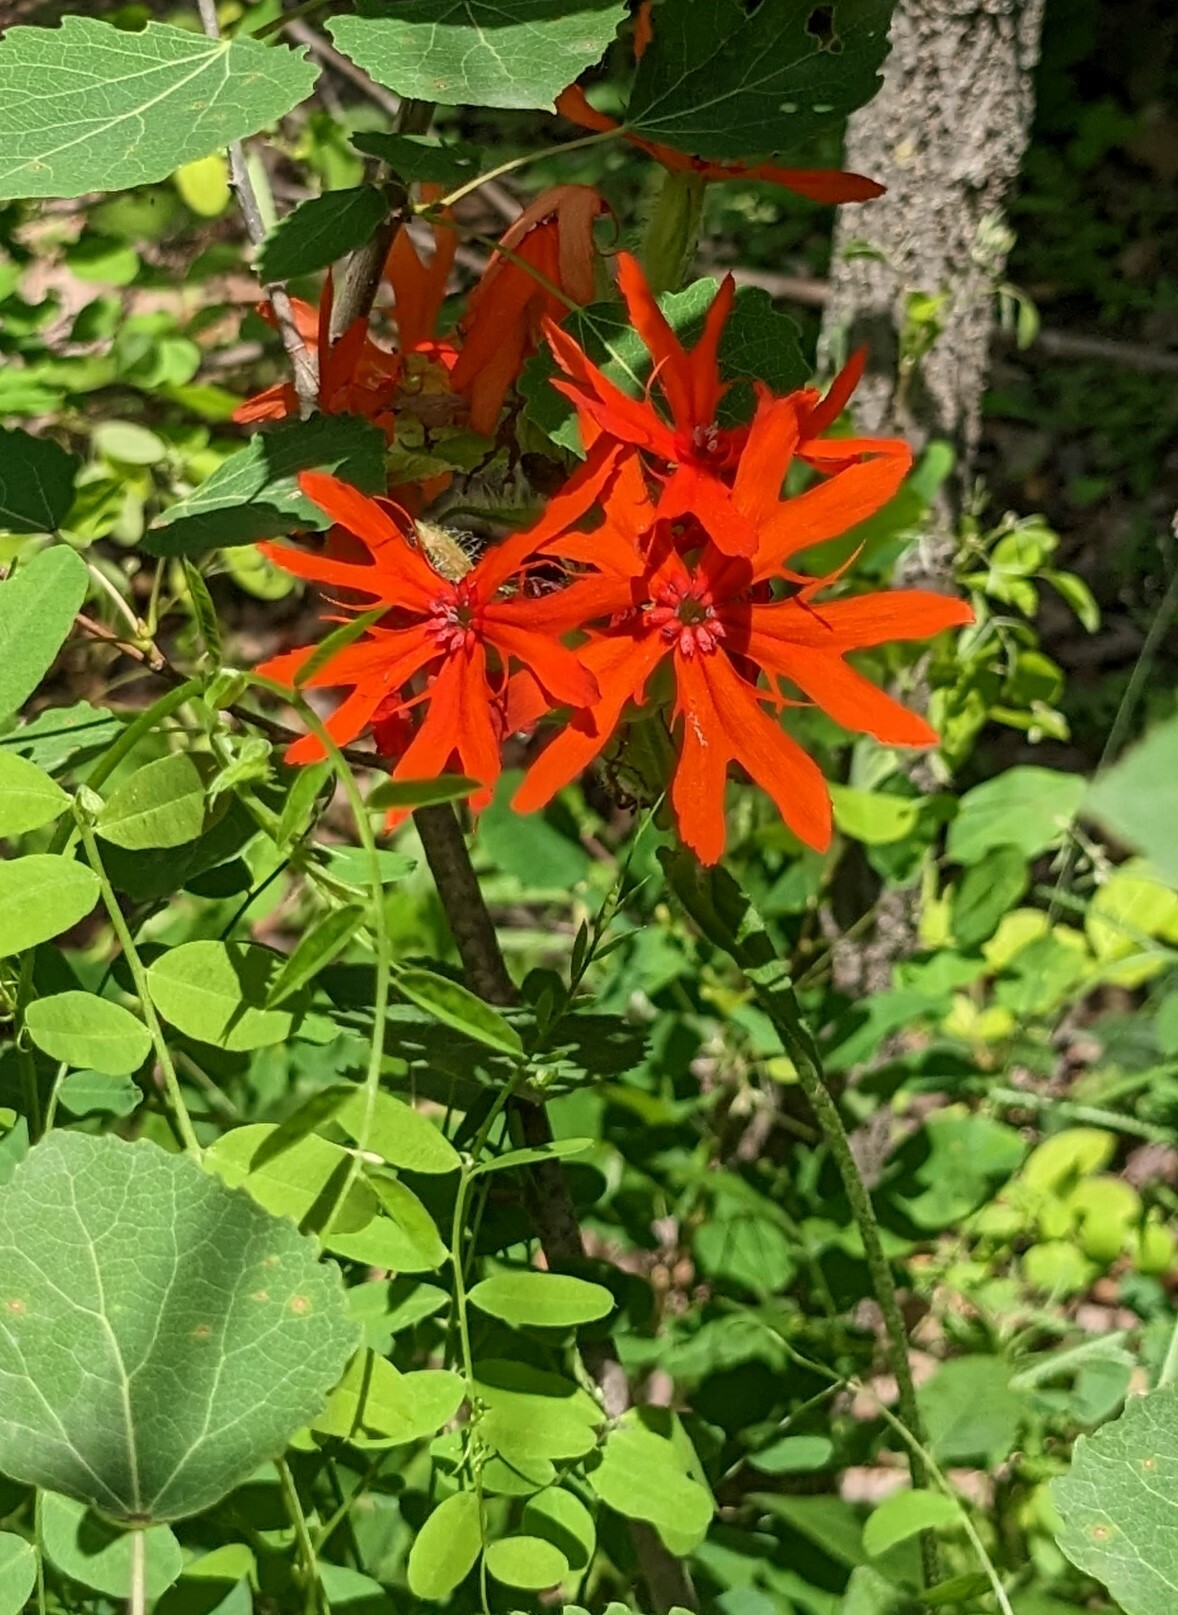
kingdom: Plantae
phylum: Tracheophyta
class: Magnoliopsida
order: Caryophyllales
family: Caryophyllaceae
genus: Silene
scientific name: Silene banksia
